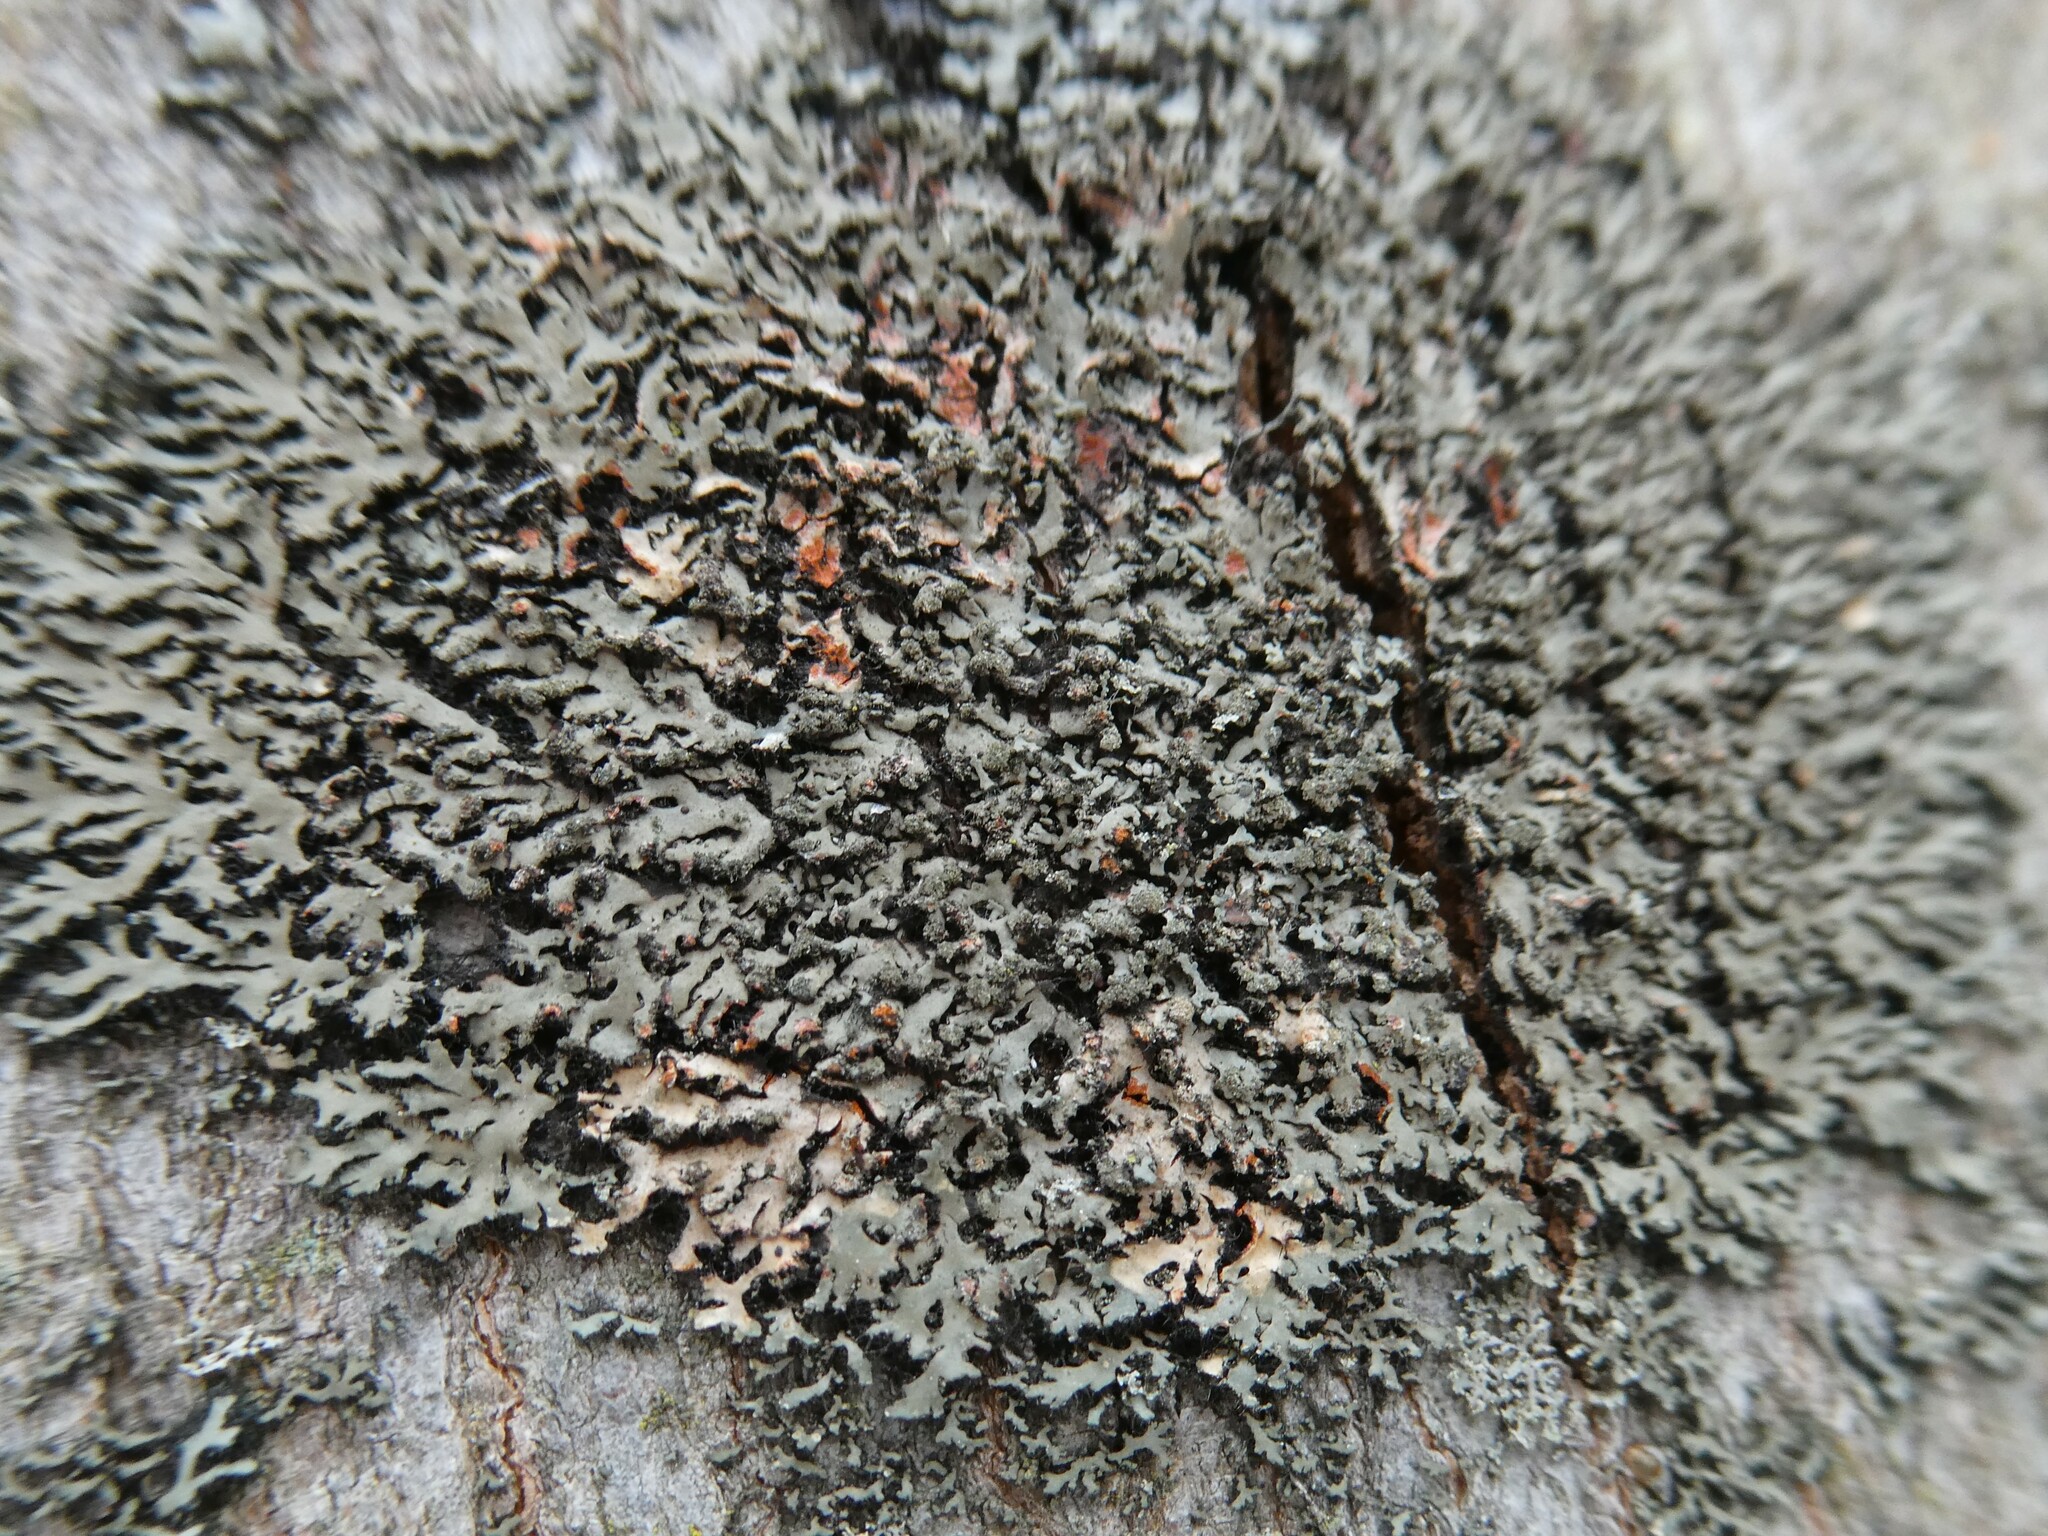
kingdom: Fungi
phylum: Ascomycota
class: Lecanoromycetes
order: Caliciales
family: Physciaceae
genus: Phaeophyscia
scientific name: Phaeophyscia rubropulchra
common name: Orange-cored shadow lichen
